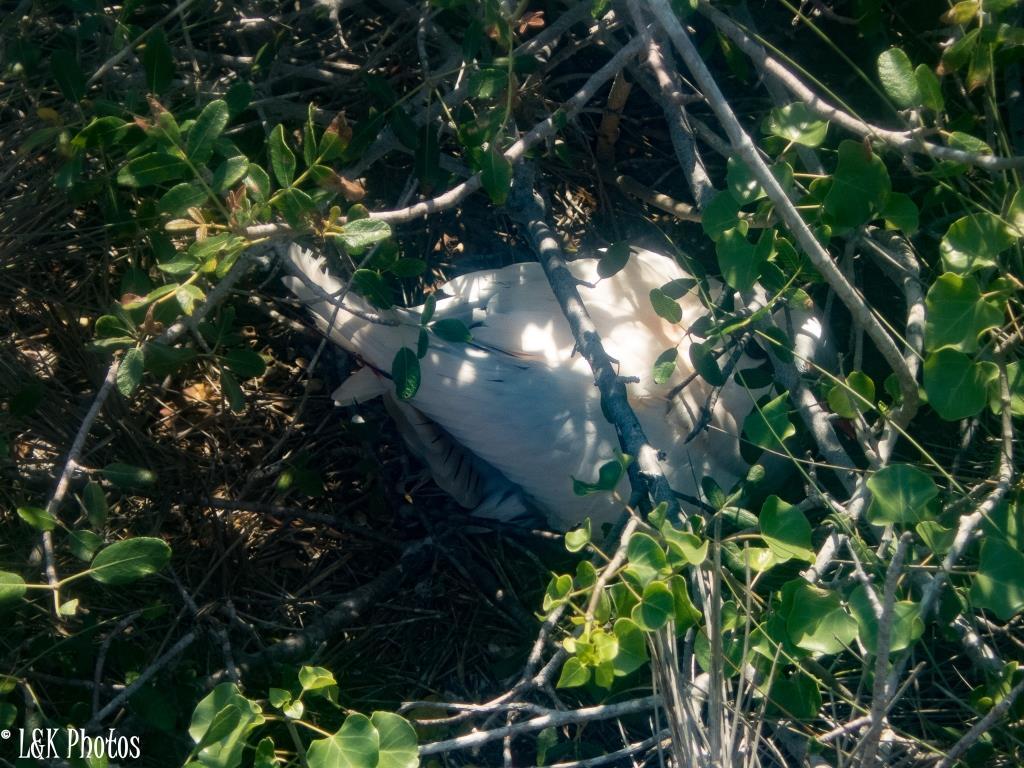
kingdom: Animalia
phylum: Chordata
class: Aves
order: Phaethontiformes
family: Phaethontidae
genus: Phaethon
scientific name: Phaethon rubricauda
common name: Red-tailed tropicbird
